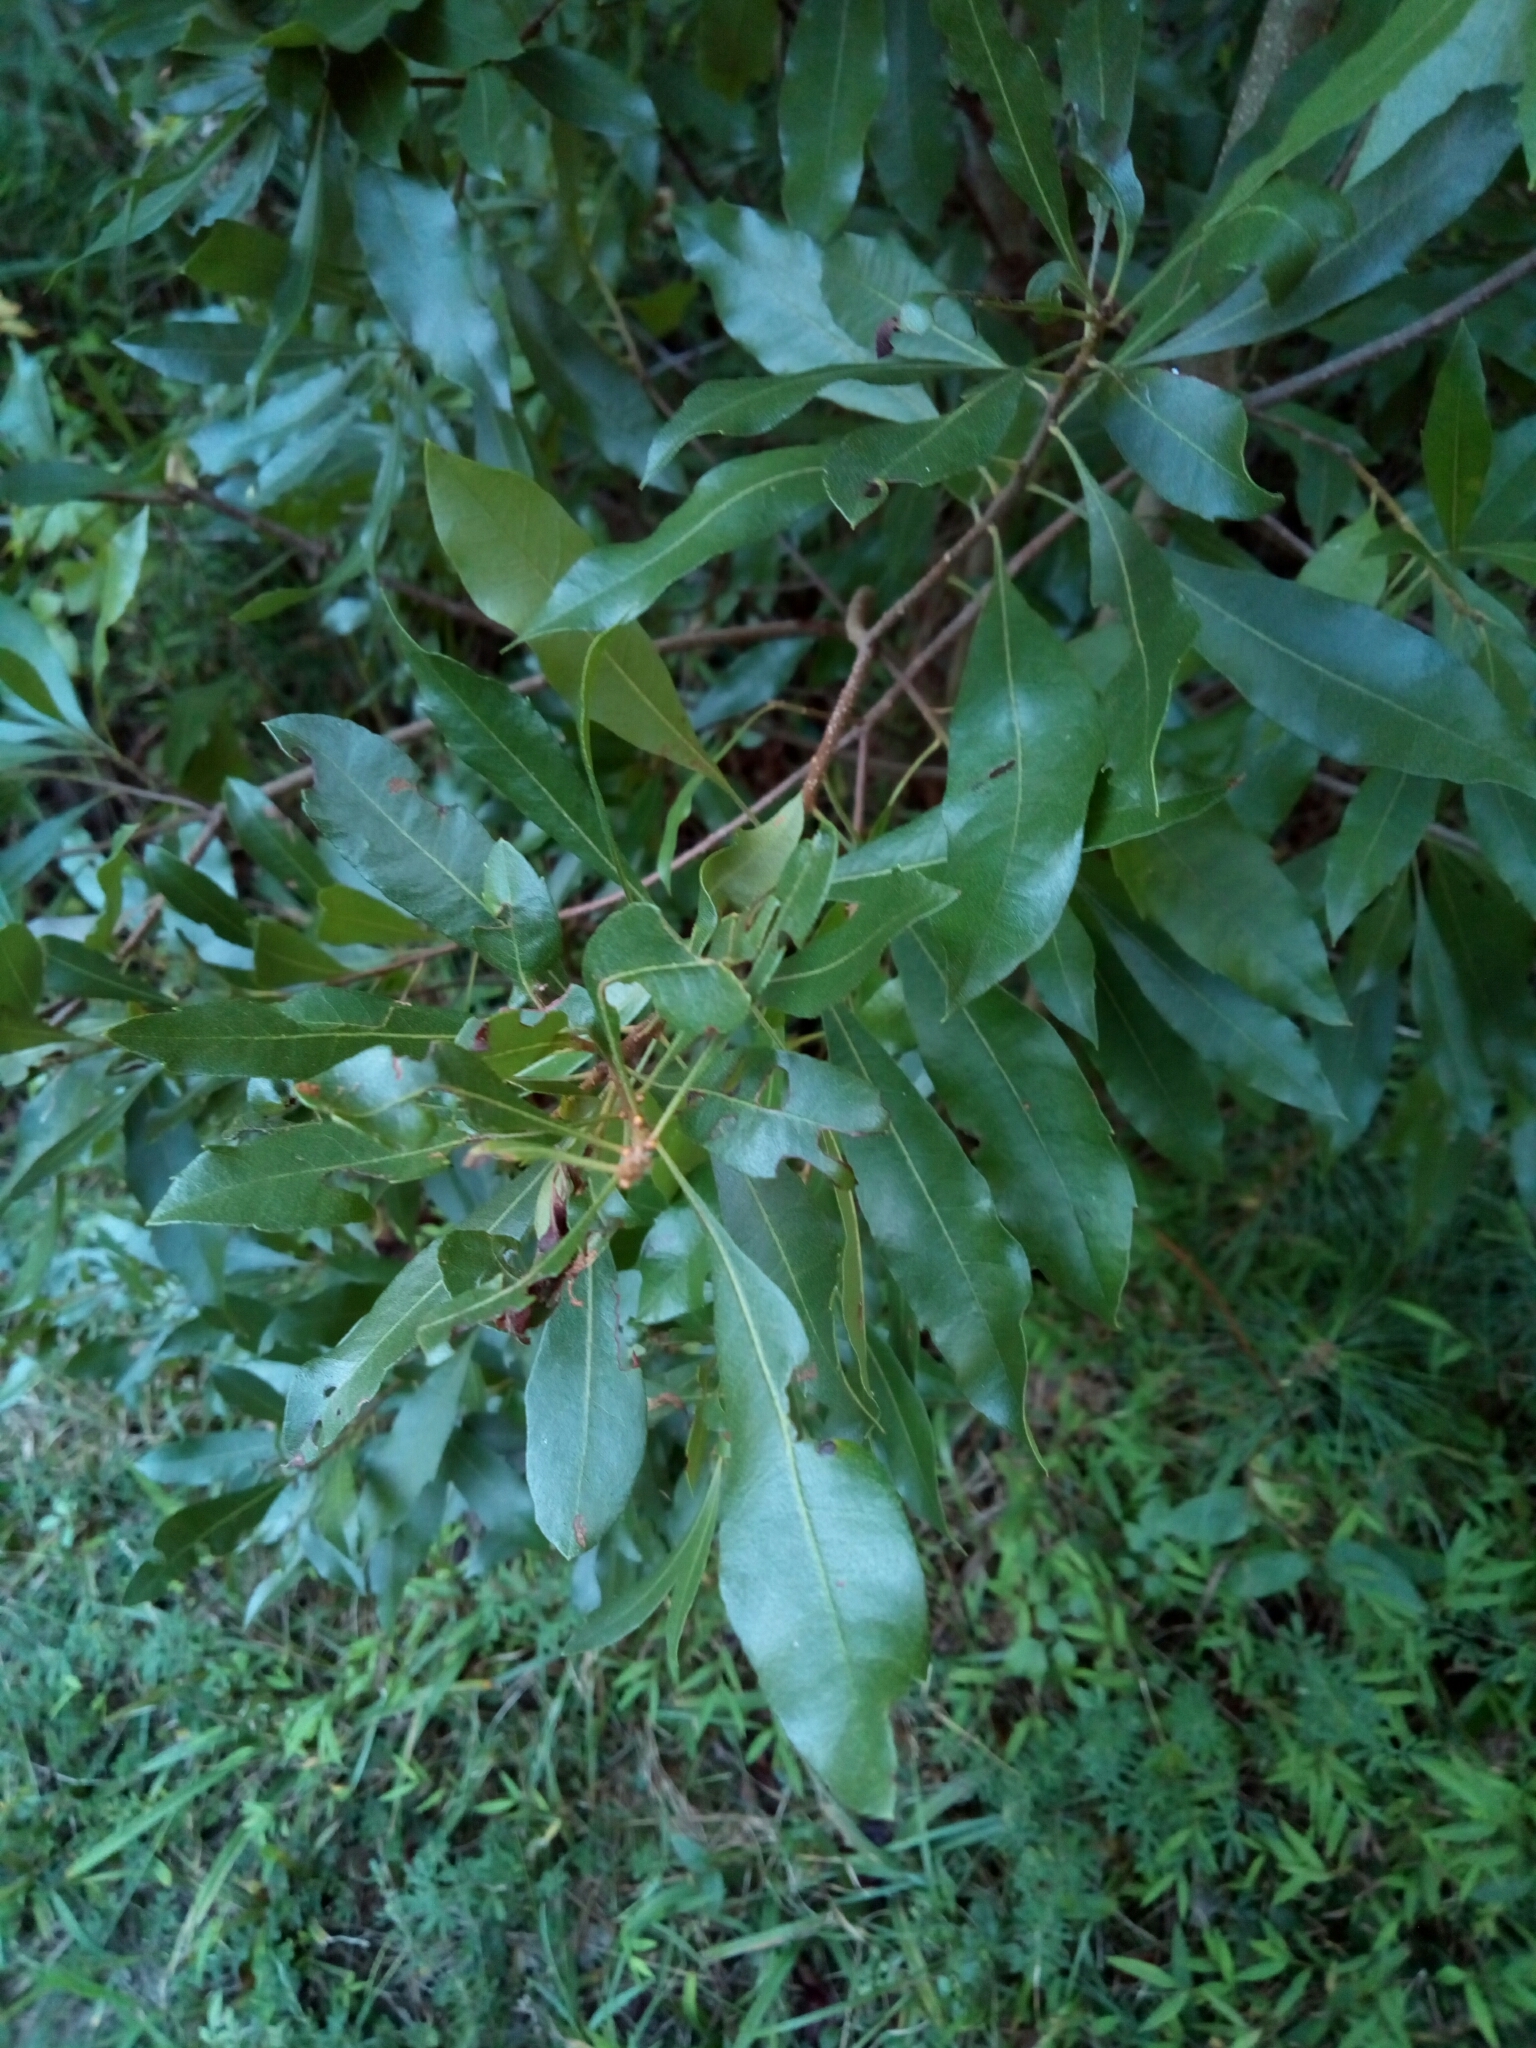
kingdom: Plantae
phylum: Tracheophyta
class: Magnoliopsida
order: Fagales
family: Myricaceae
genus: Morella
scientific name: Morella cerifera
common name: Wax myrtle
